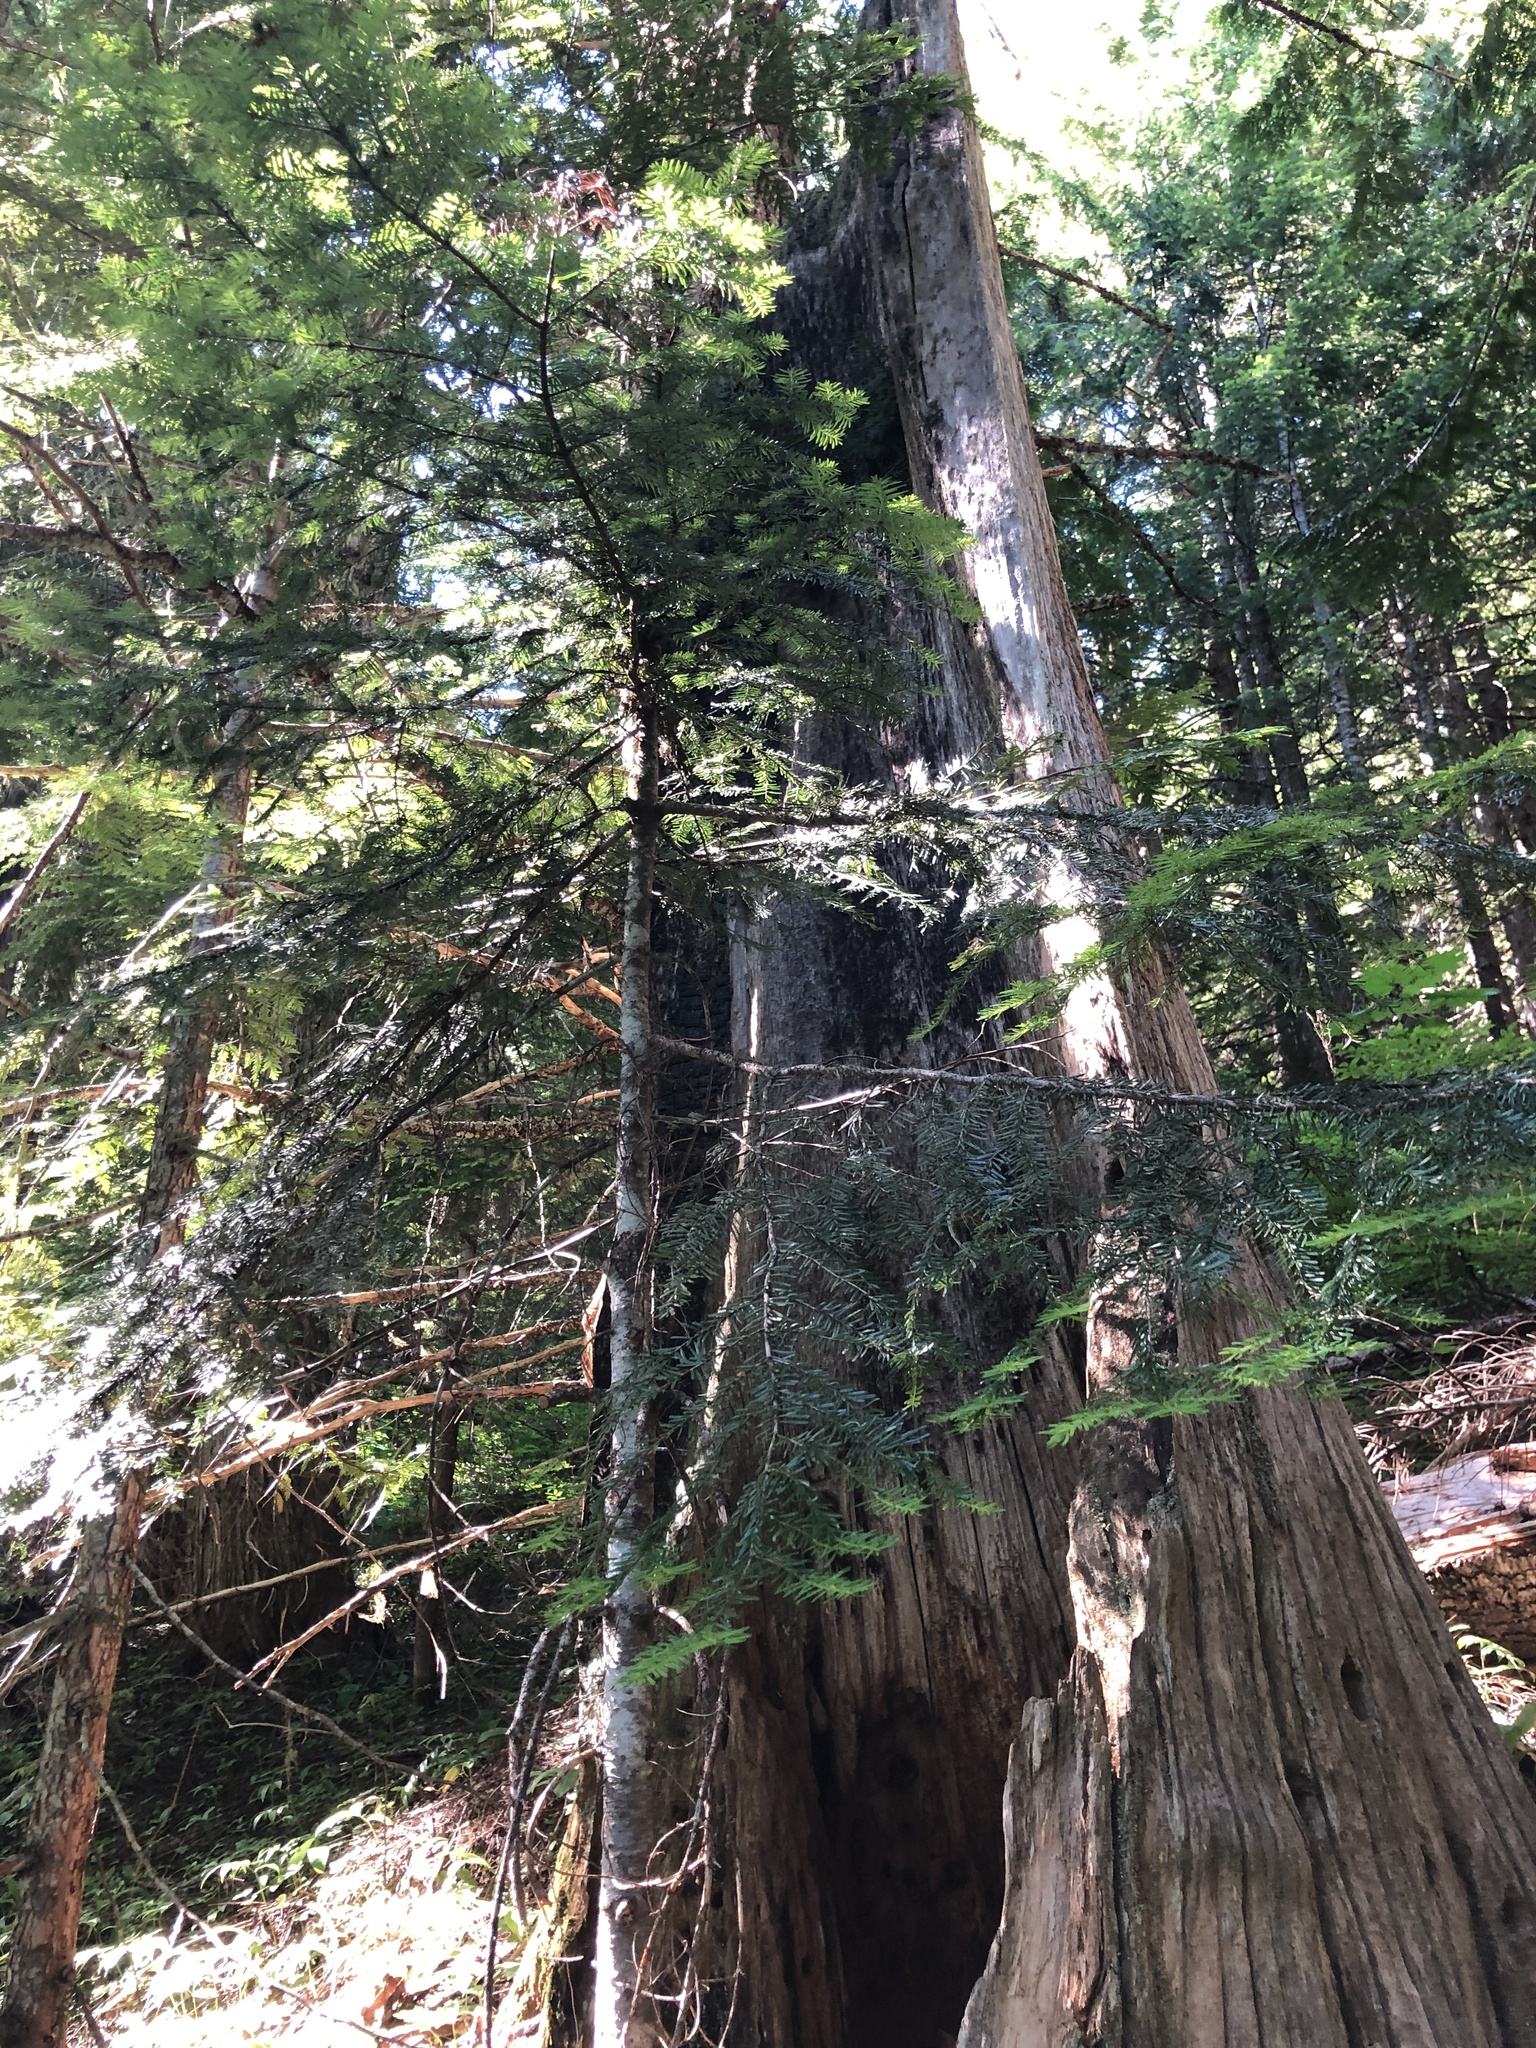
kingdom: Plantae
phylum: Tracheophyta
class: Pinopsida
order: Pinales
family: Pinaceae
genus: Abies
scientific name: Abies amabilis
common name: Pacific silver fir
